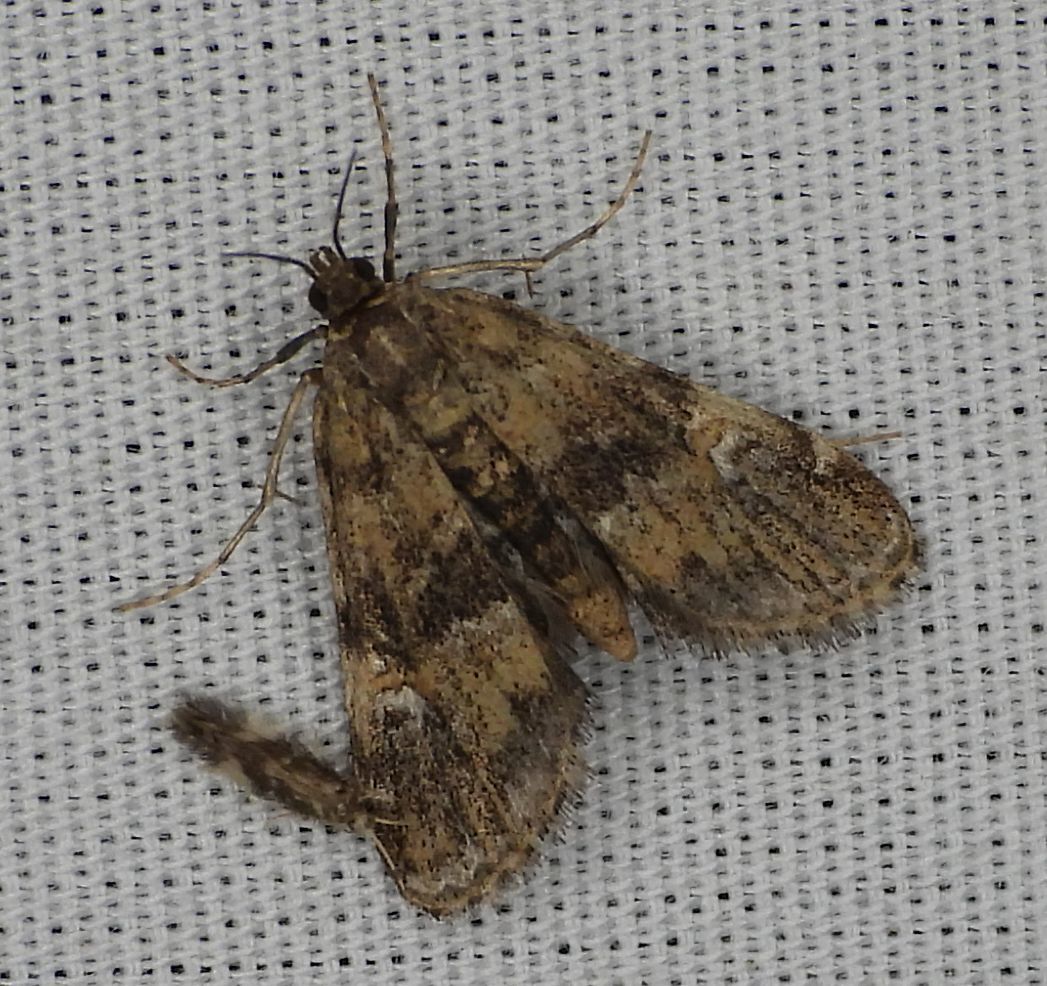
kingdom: Animalia
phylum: Arthropoda
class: Insecta
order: Lepidoptera
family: Crambidae
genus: Elophila
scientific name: Elophila obliteralis
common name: Waterlily leafcutter moth
